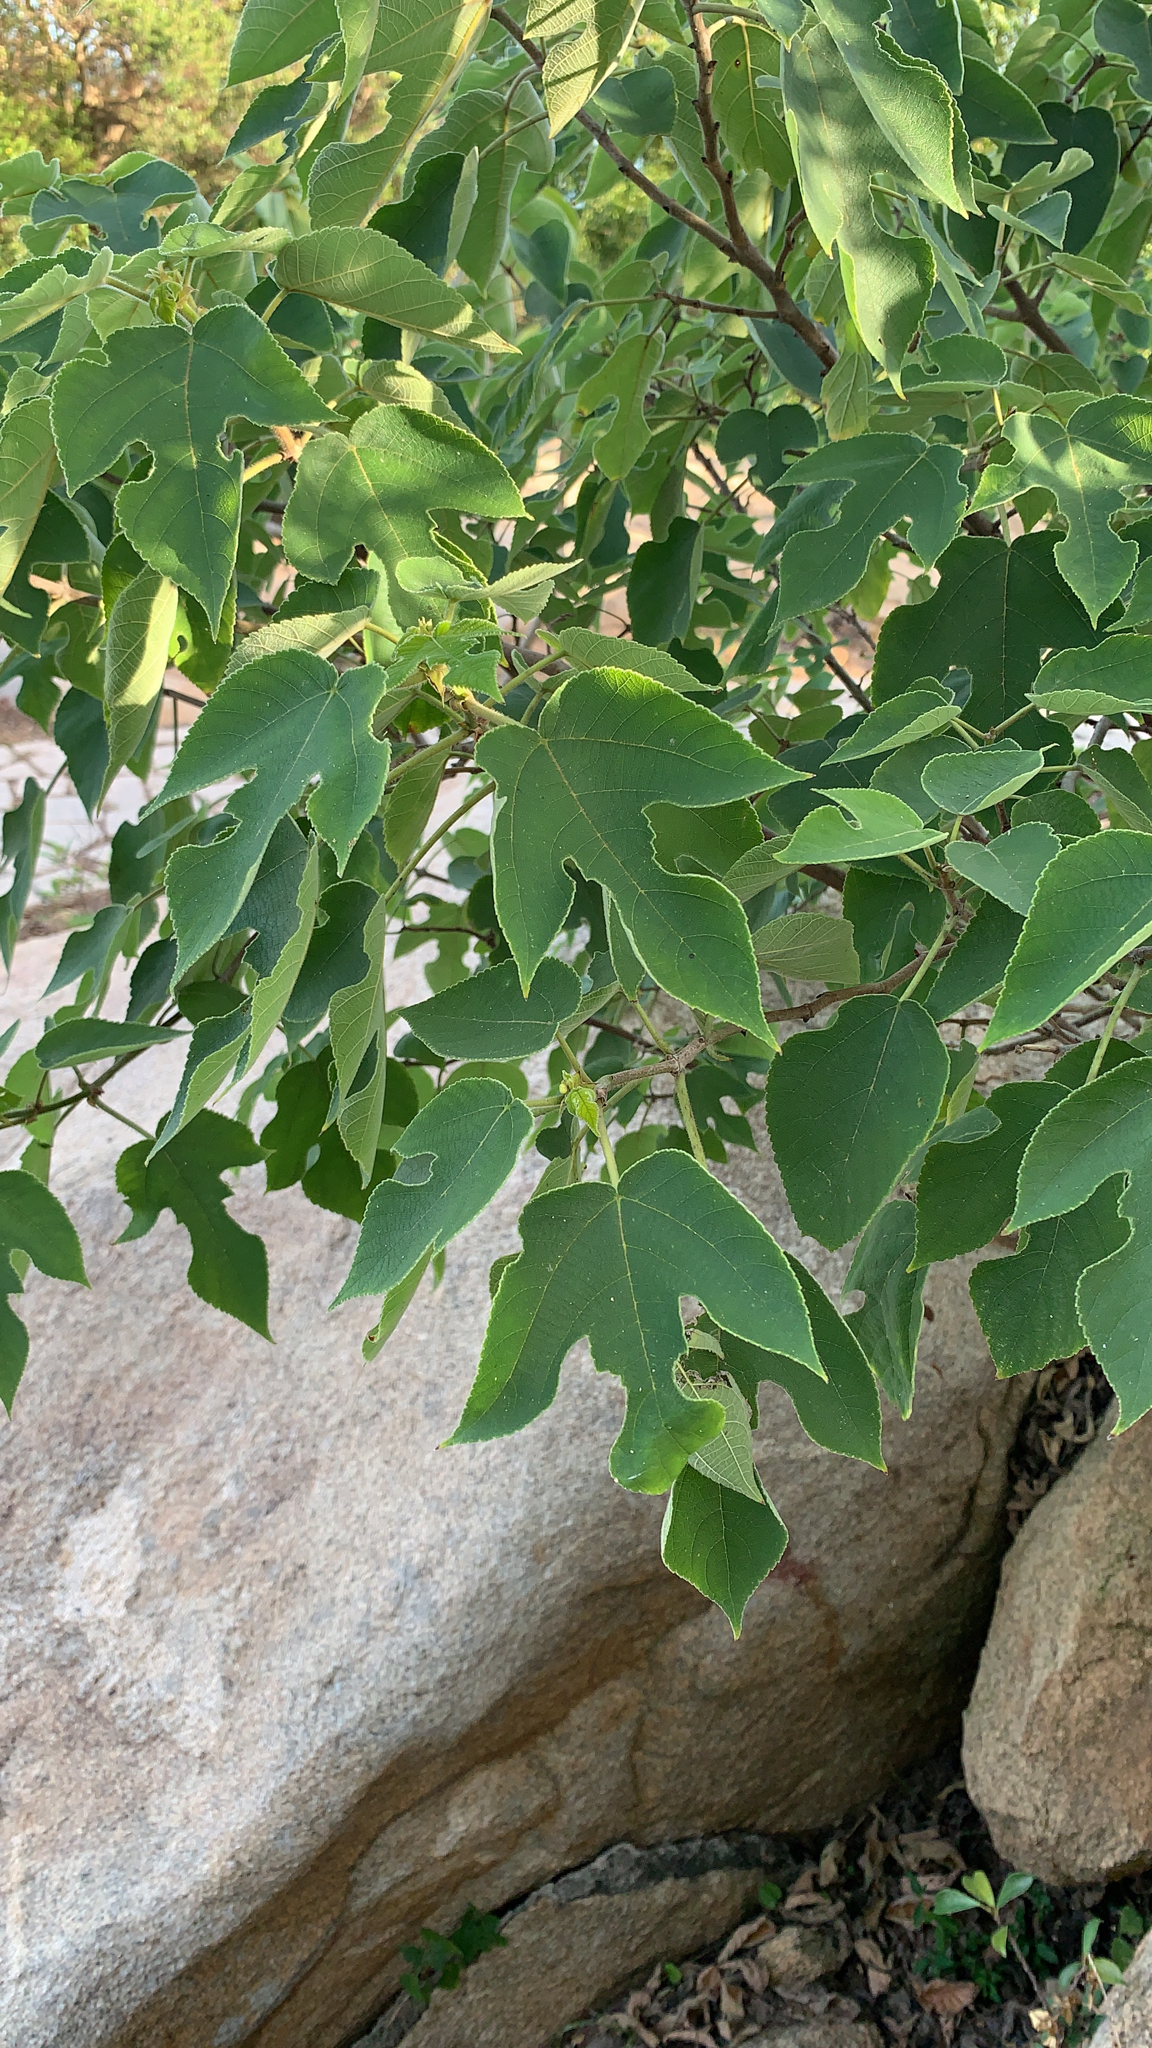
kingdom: Plantae
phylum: Tracheophyta
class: Magnoliopsida
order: Rosales
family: Moraceae
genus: Broussonetia
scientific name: Broussonetia papyrifera
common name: Paper mulberry
